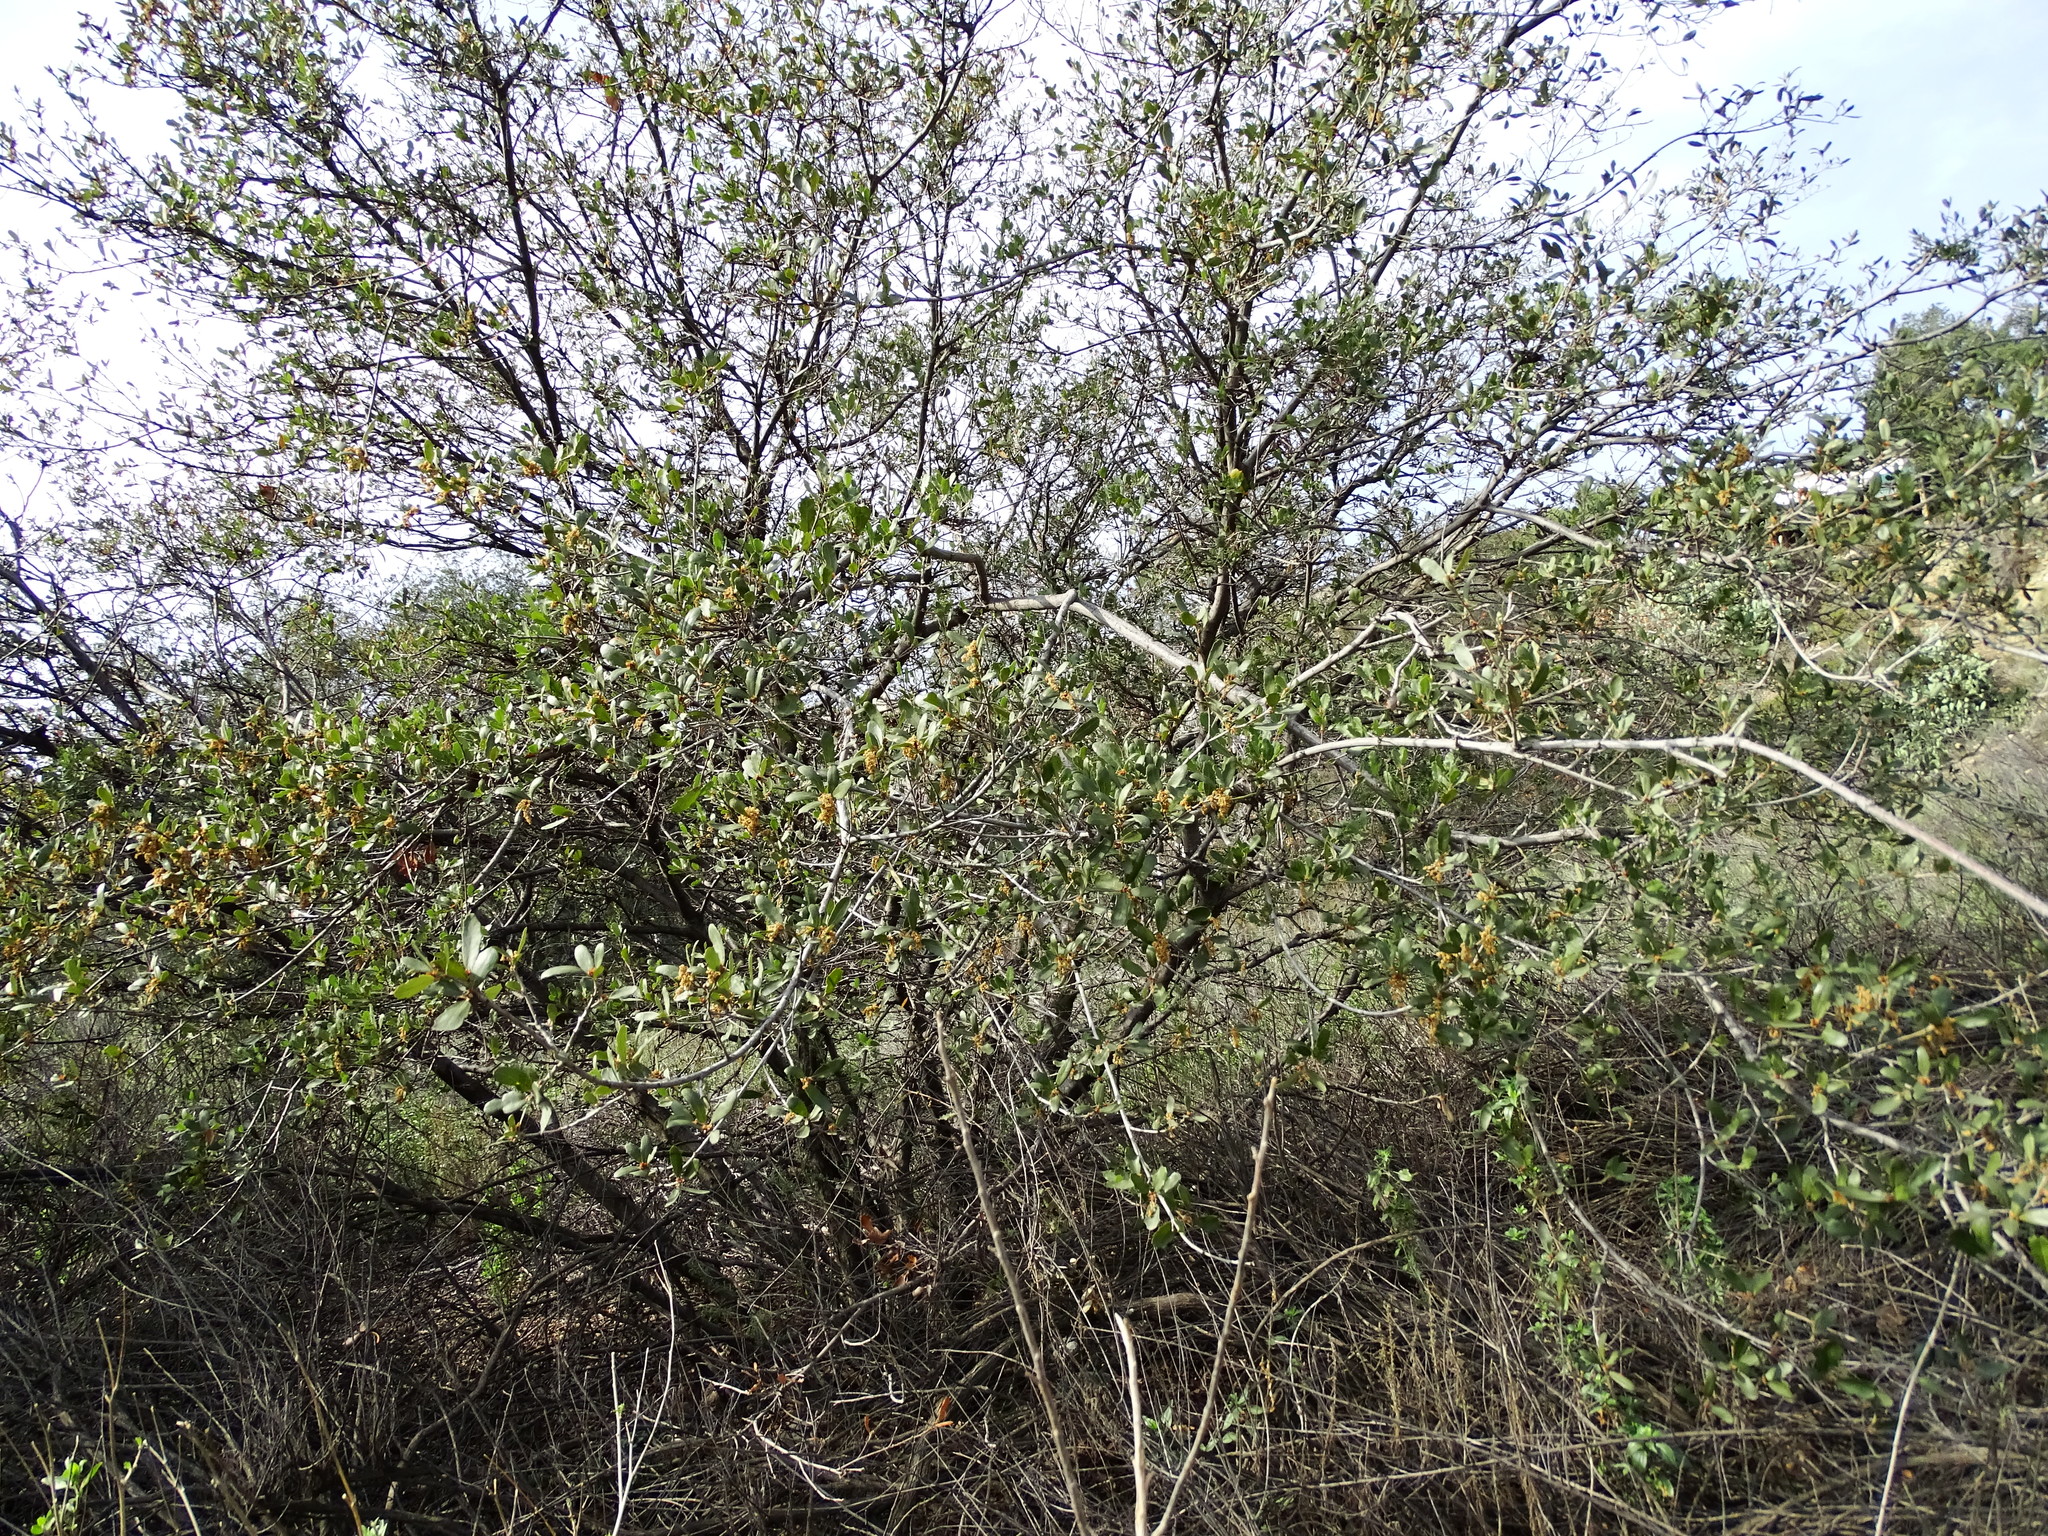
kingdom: Plantae
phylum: Tracheophyta
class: Magnoliopsida
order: Fagales
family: Fagaceae
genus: Quercus
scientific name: Quercus
